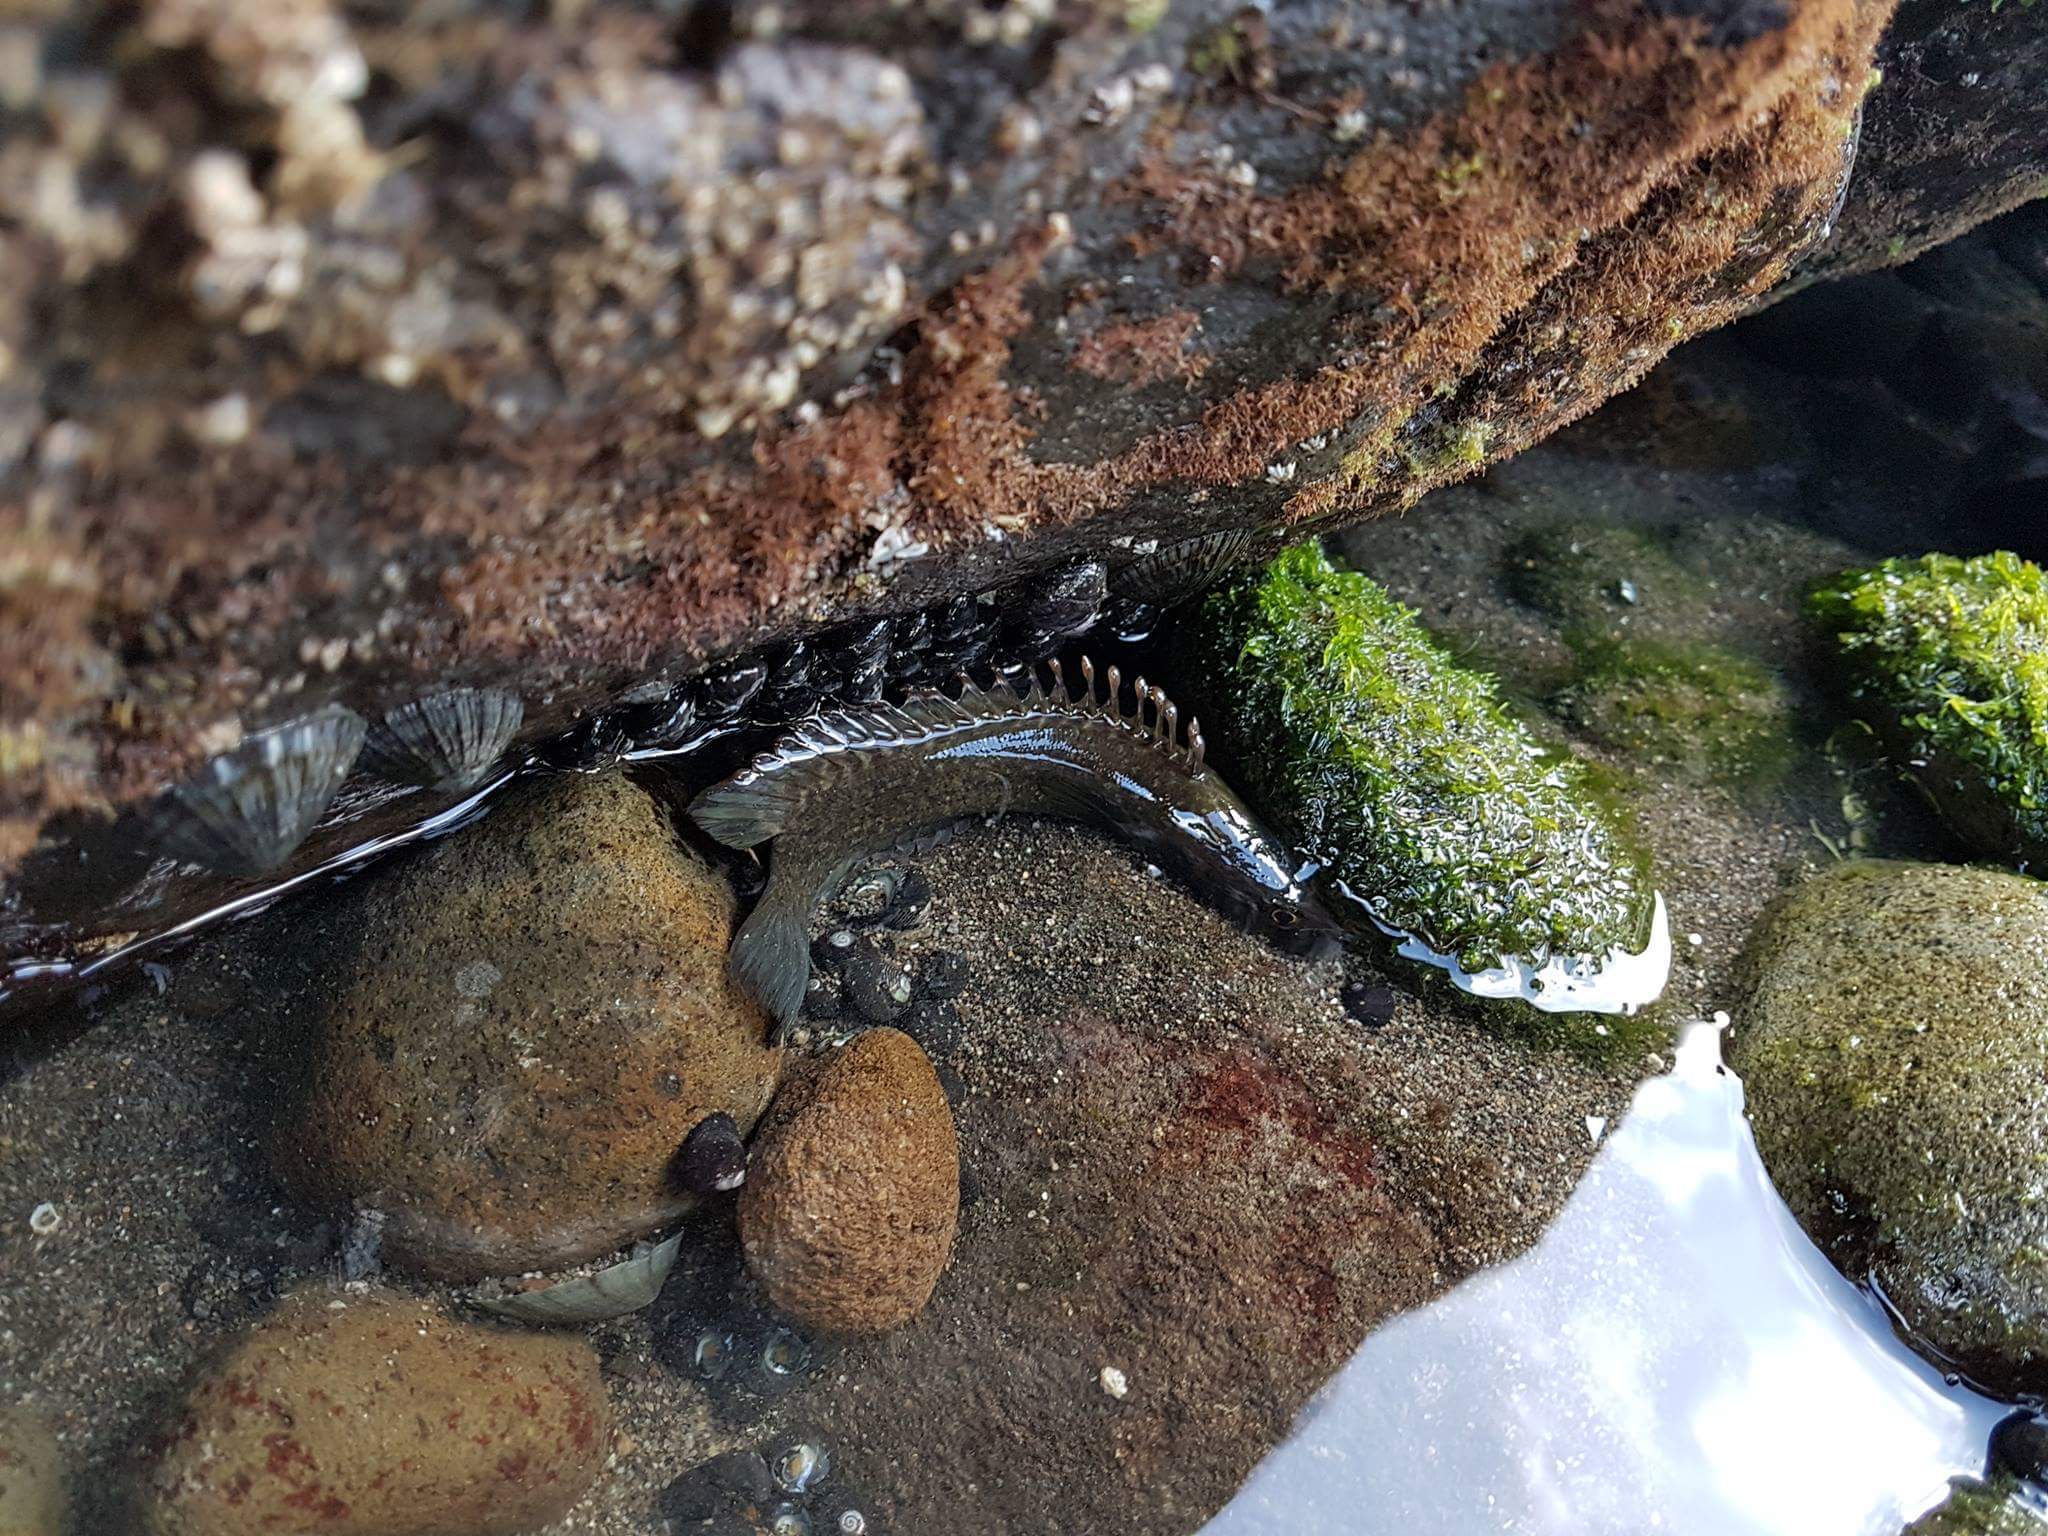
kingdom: Animalia
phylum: Chordata
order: Perciformes
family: Plesiopidae
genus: Acanthoclinus
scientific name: Acanthoclinus fuscus
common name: Olive rockfish
